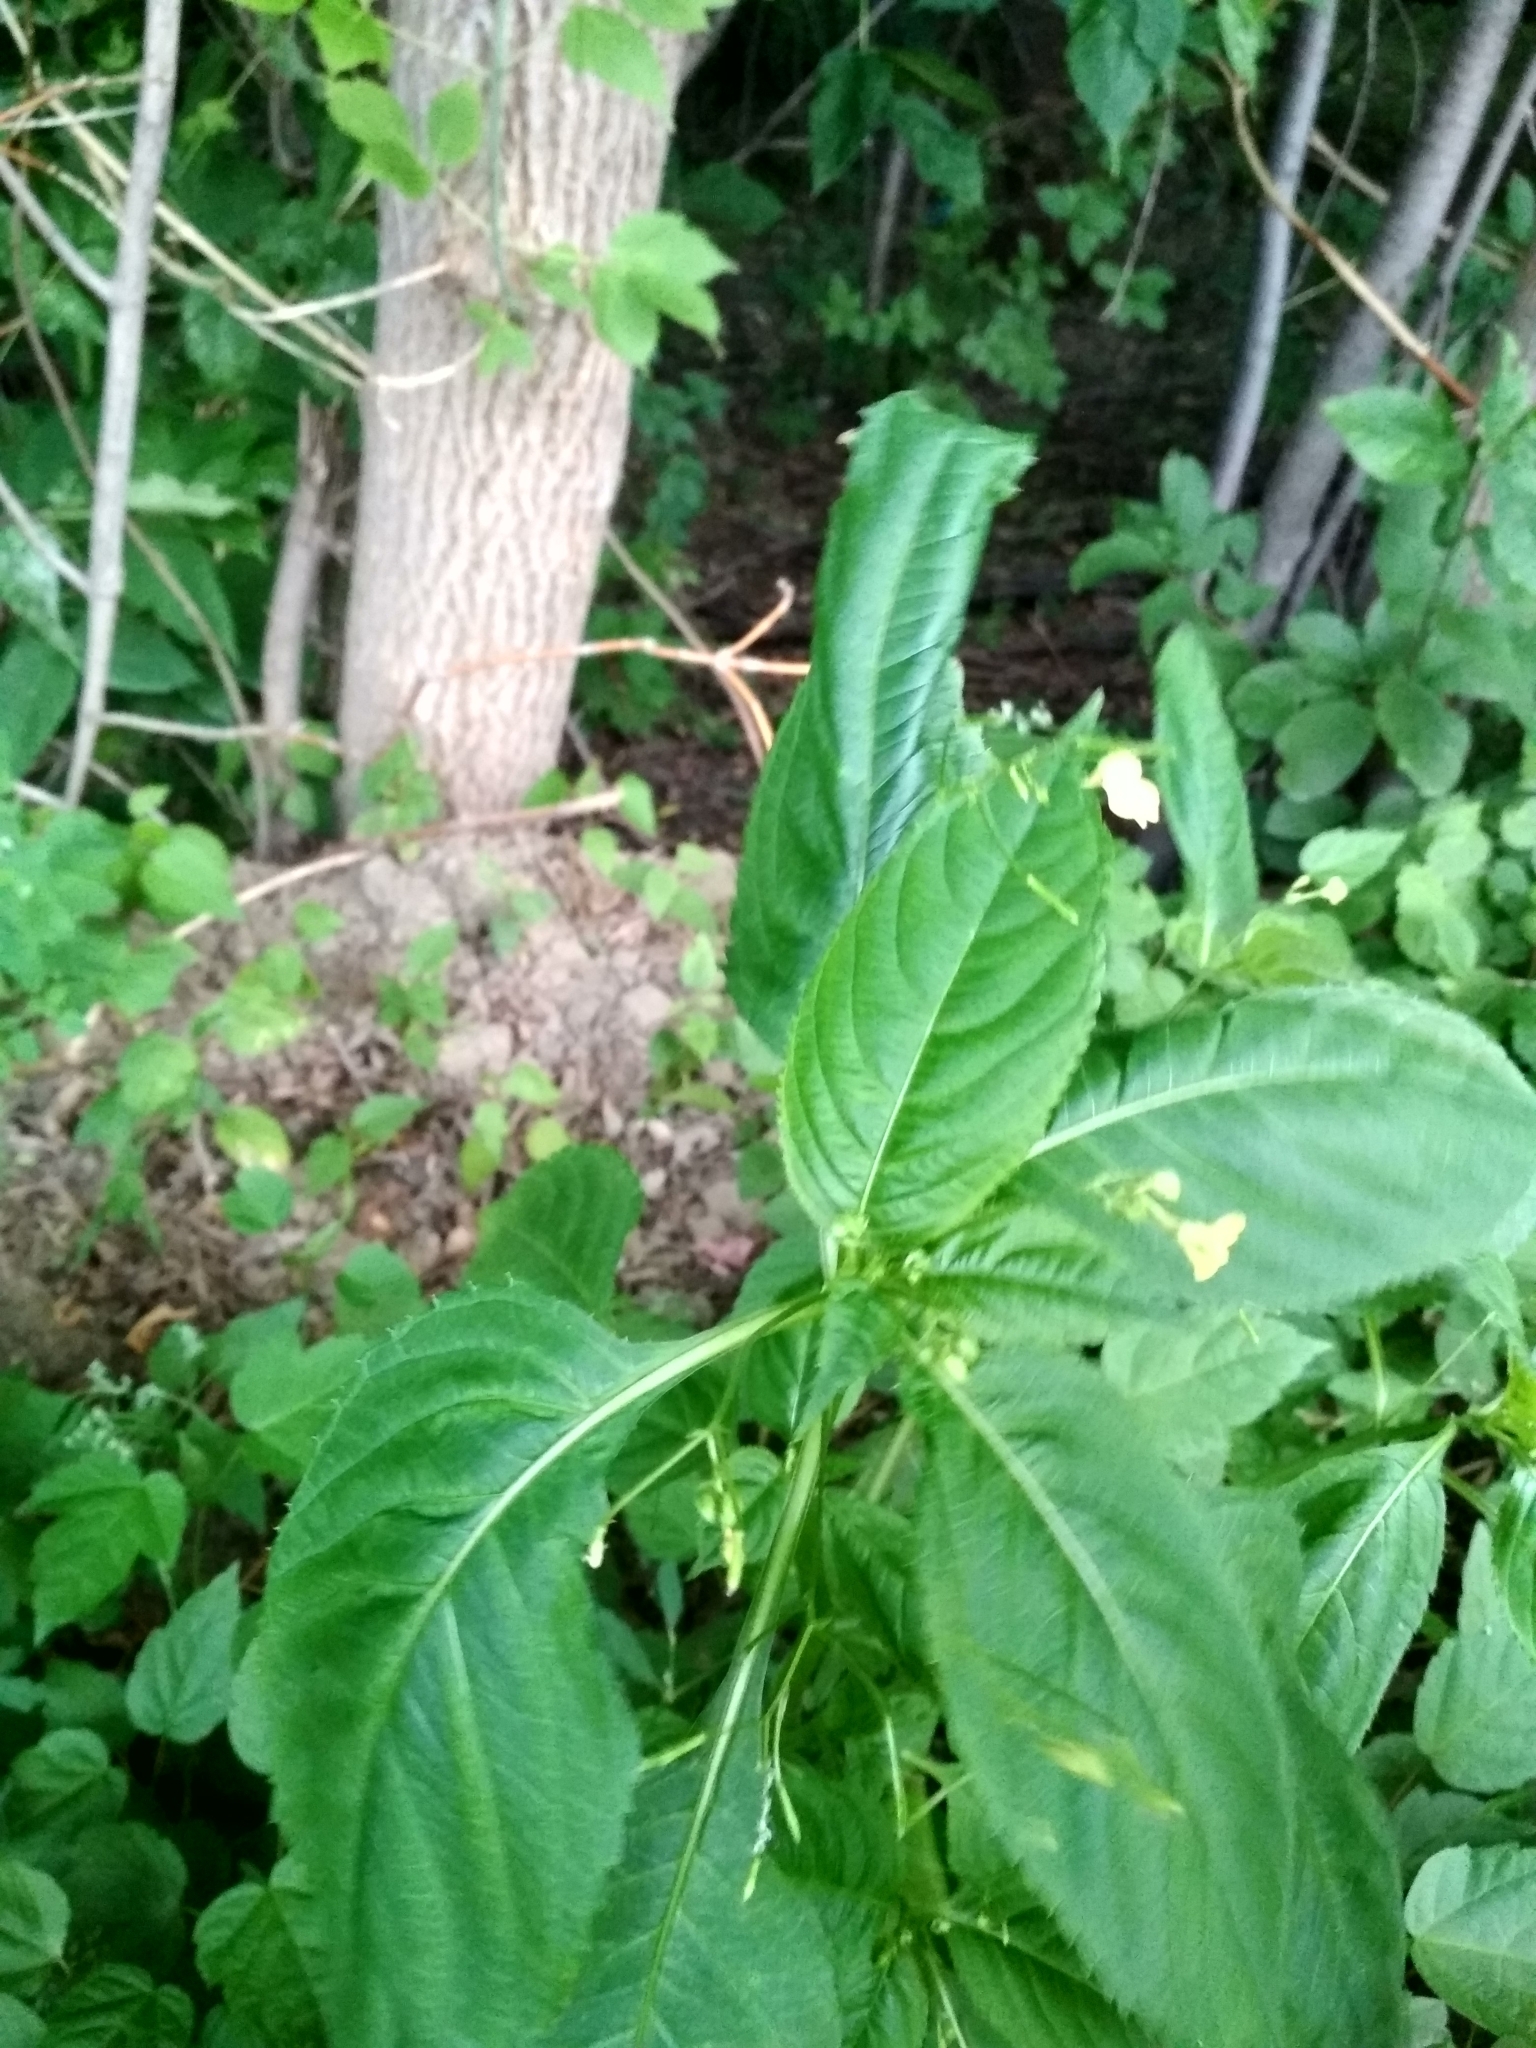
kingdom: Plantae
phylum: Tracheophyta
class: Magnoliopsida
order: Ericales
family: Balsaminaceae
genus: Impatiens
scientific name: Impatiens parviflora
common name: Small balsam
